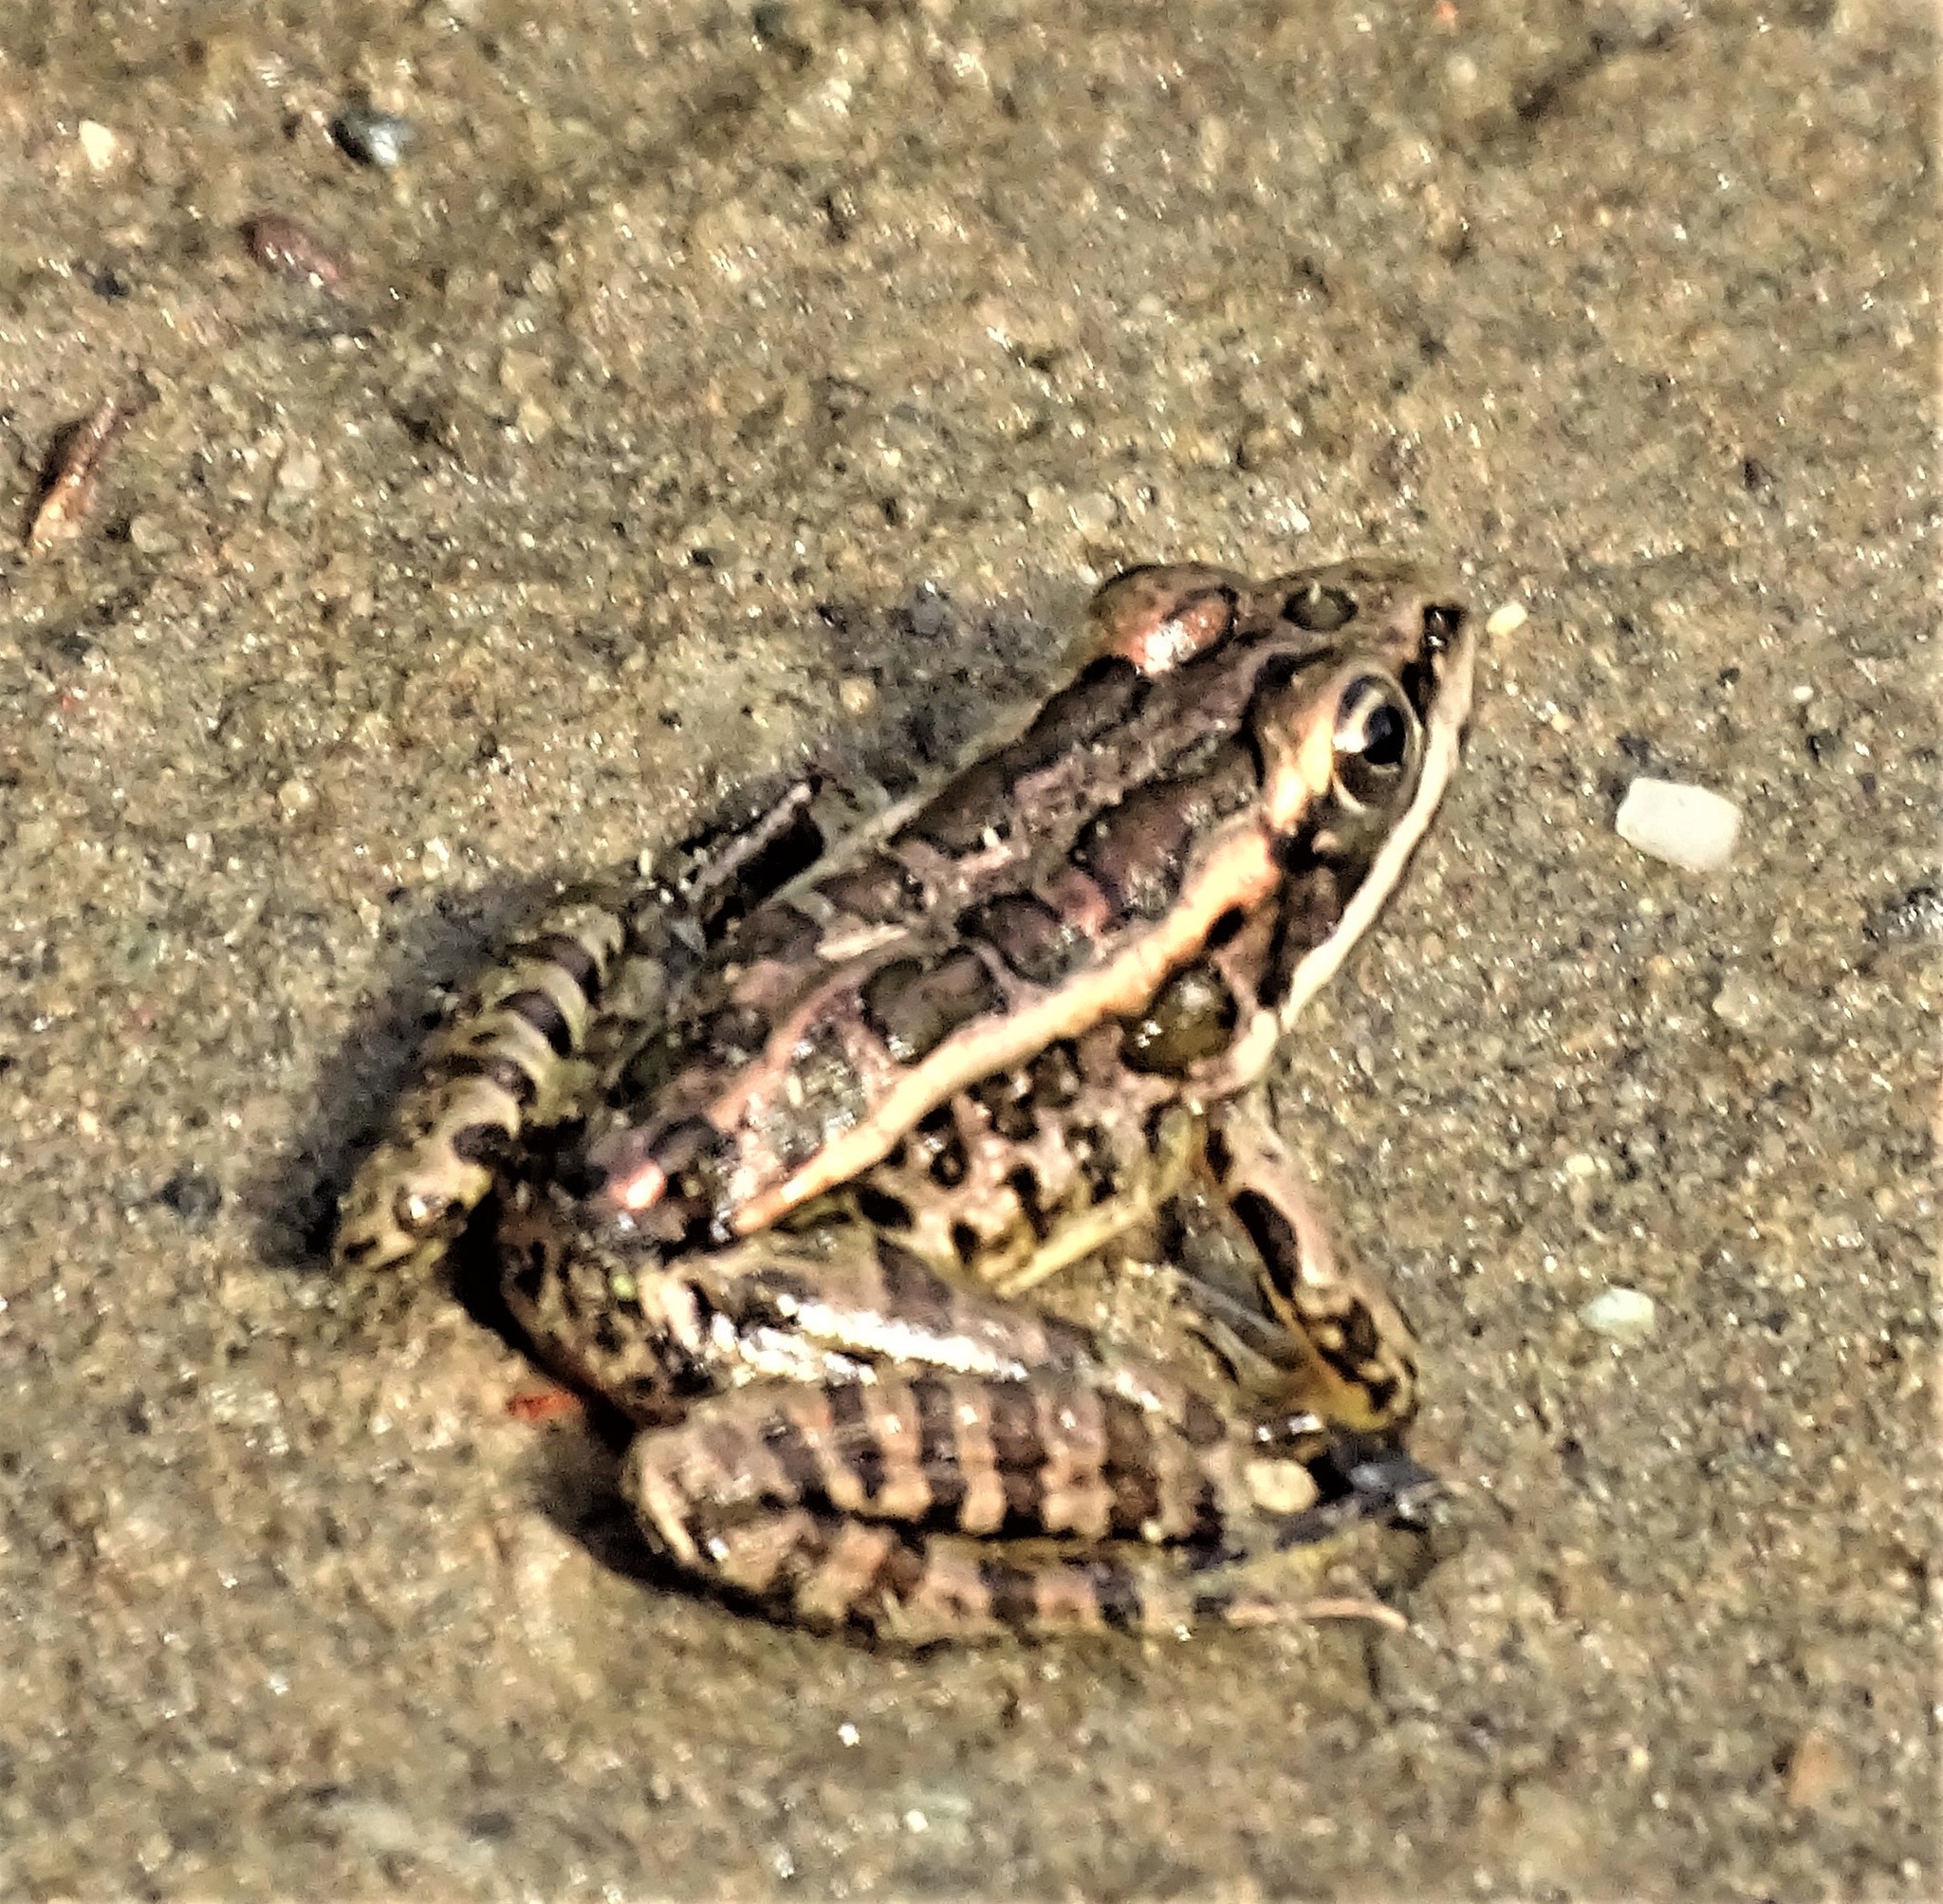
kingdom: Animalia
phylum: Chordata
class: Amphibia
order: Anura
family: Ranidae
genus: Lithobates
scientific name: Lithobates palustris
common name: Pickerel frog
